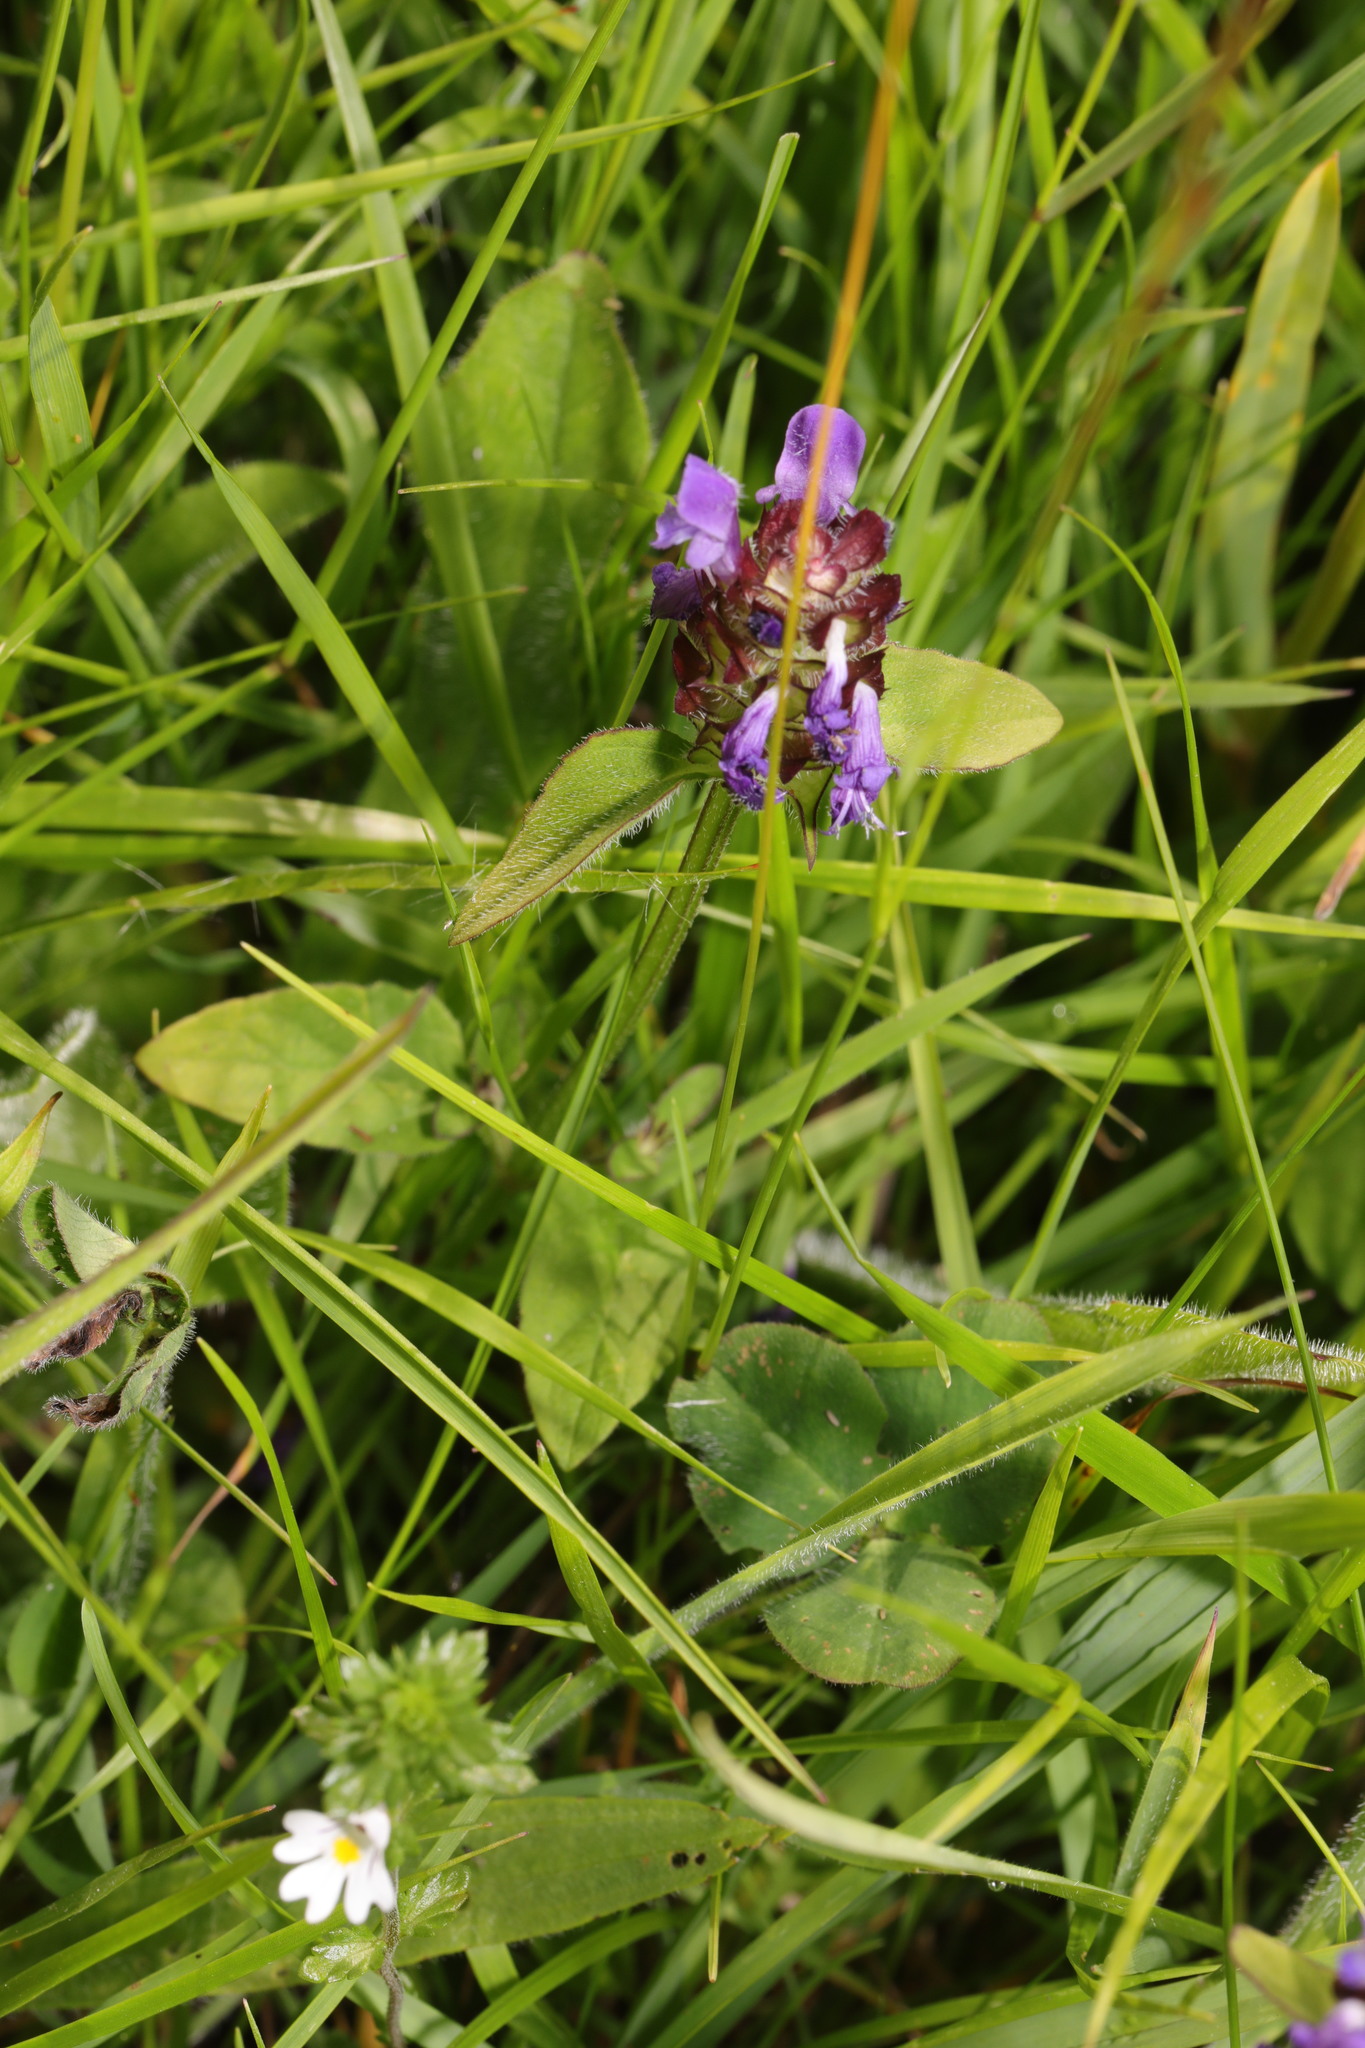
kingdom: Plantae
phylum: Tracheophyta
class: Magnoliopsida
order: Lamiales
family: Lamiaceae
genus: Prunella
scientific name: Prunella vulgaris
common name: Heal-all
